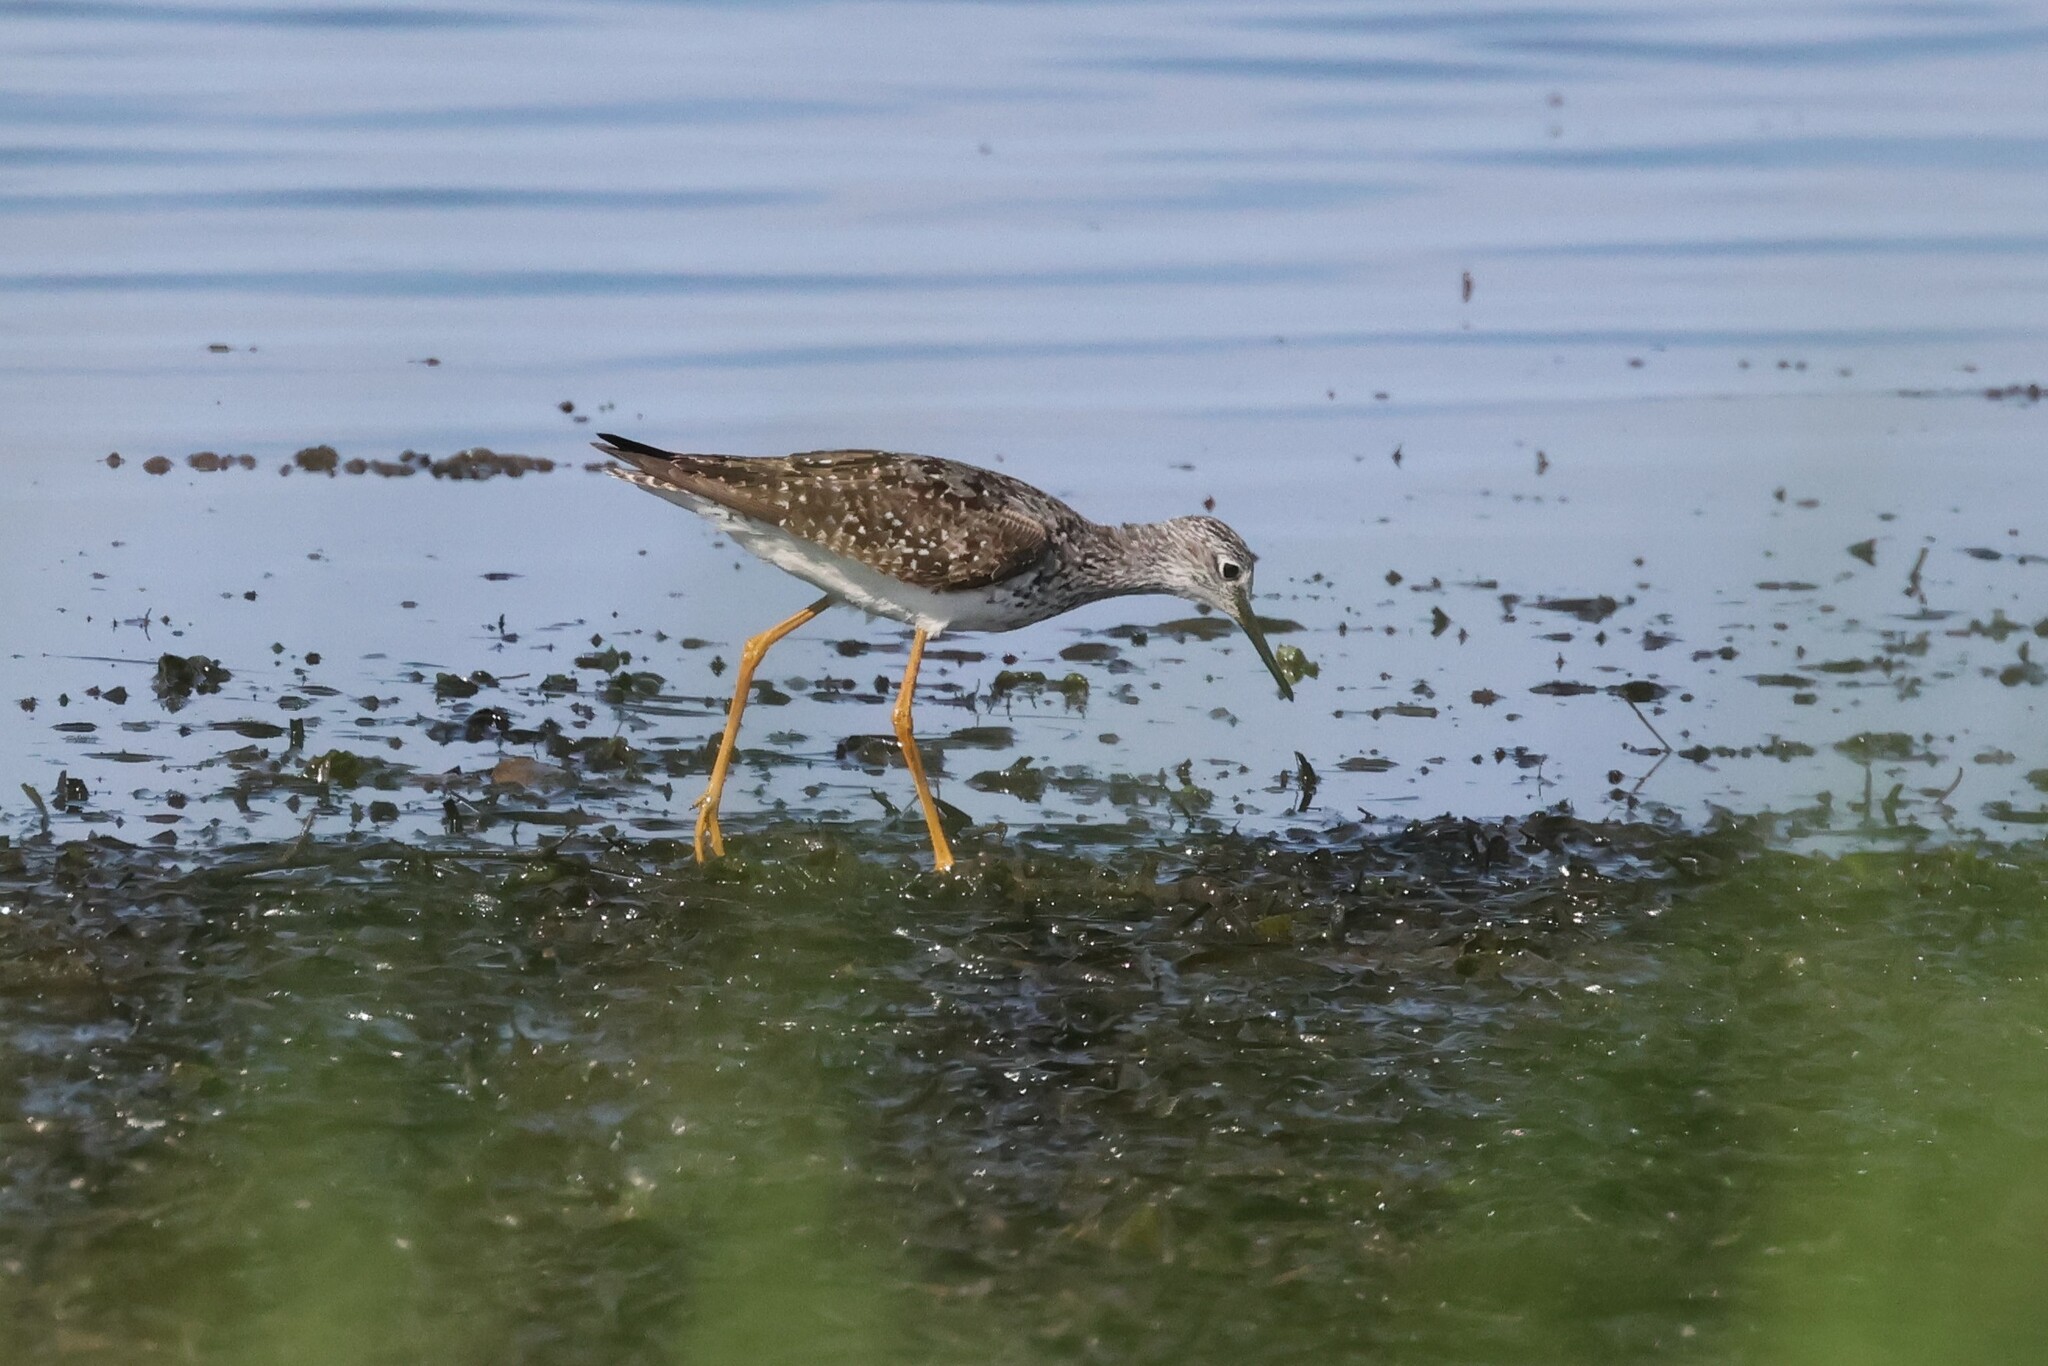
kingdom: Animalia
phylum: Chordata
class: Aves
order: Charadriiformes
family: Scolopacidae
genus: Tringa
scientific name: Tringa flavipes
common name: Lesser yellowlegs
